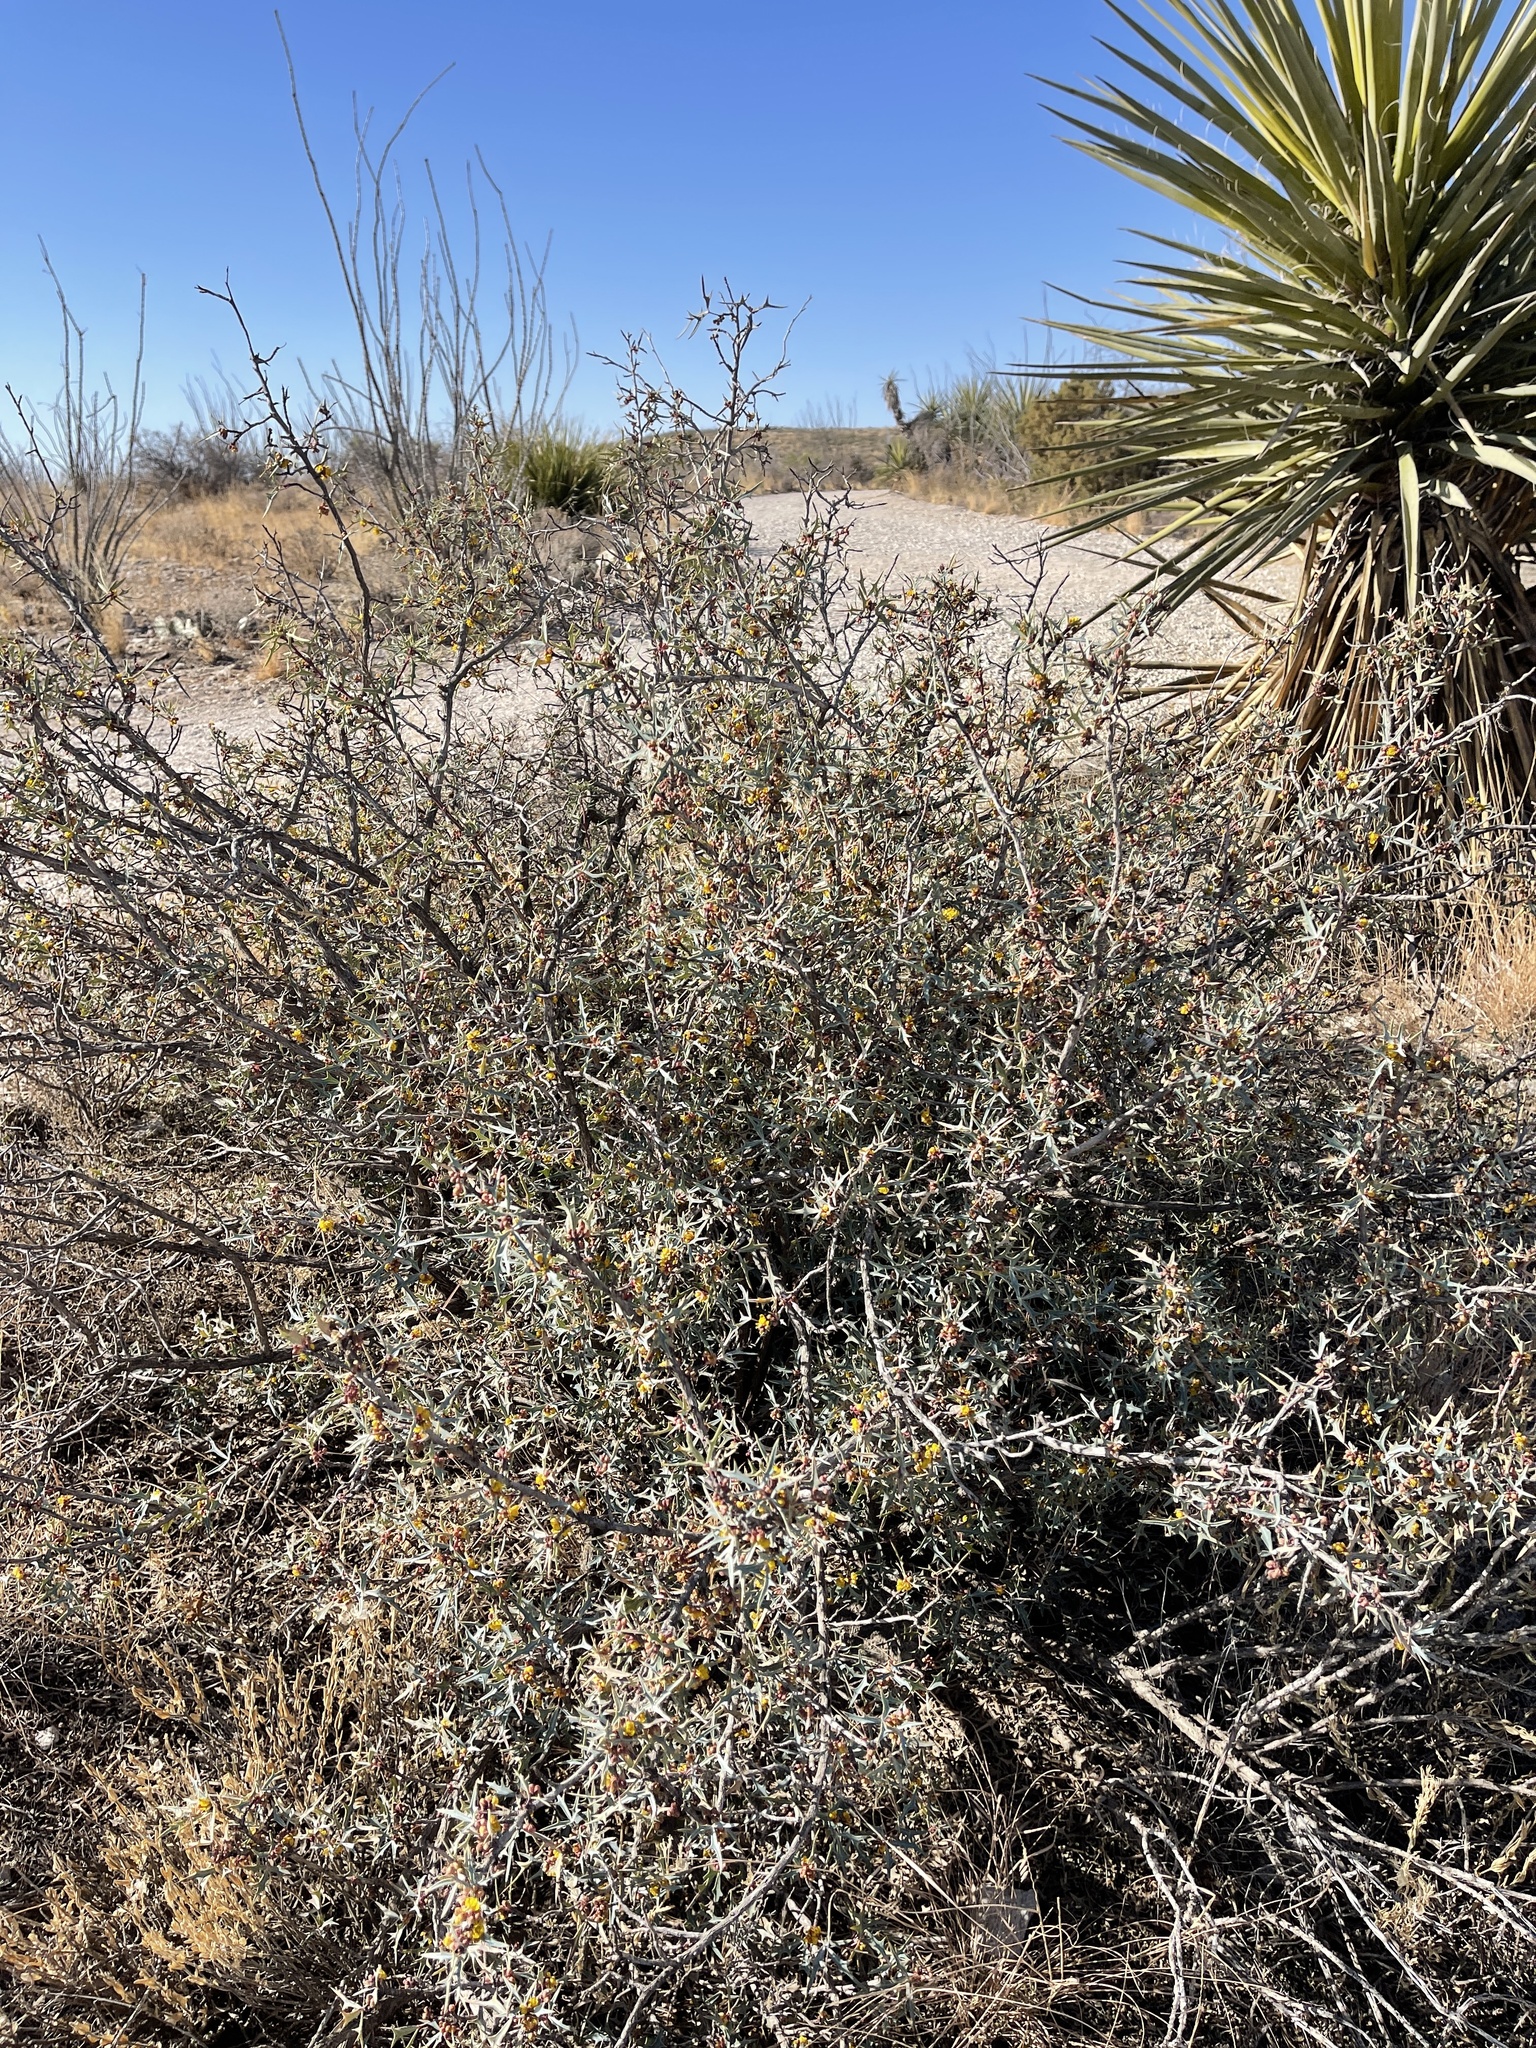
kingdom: Plantae
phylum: Tracheophyta
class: Magnoliopsida
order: Ranunculales
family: Berberidaceae
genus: Alloberberis
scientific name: Alloberberis trifoliolata
